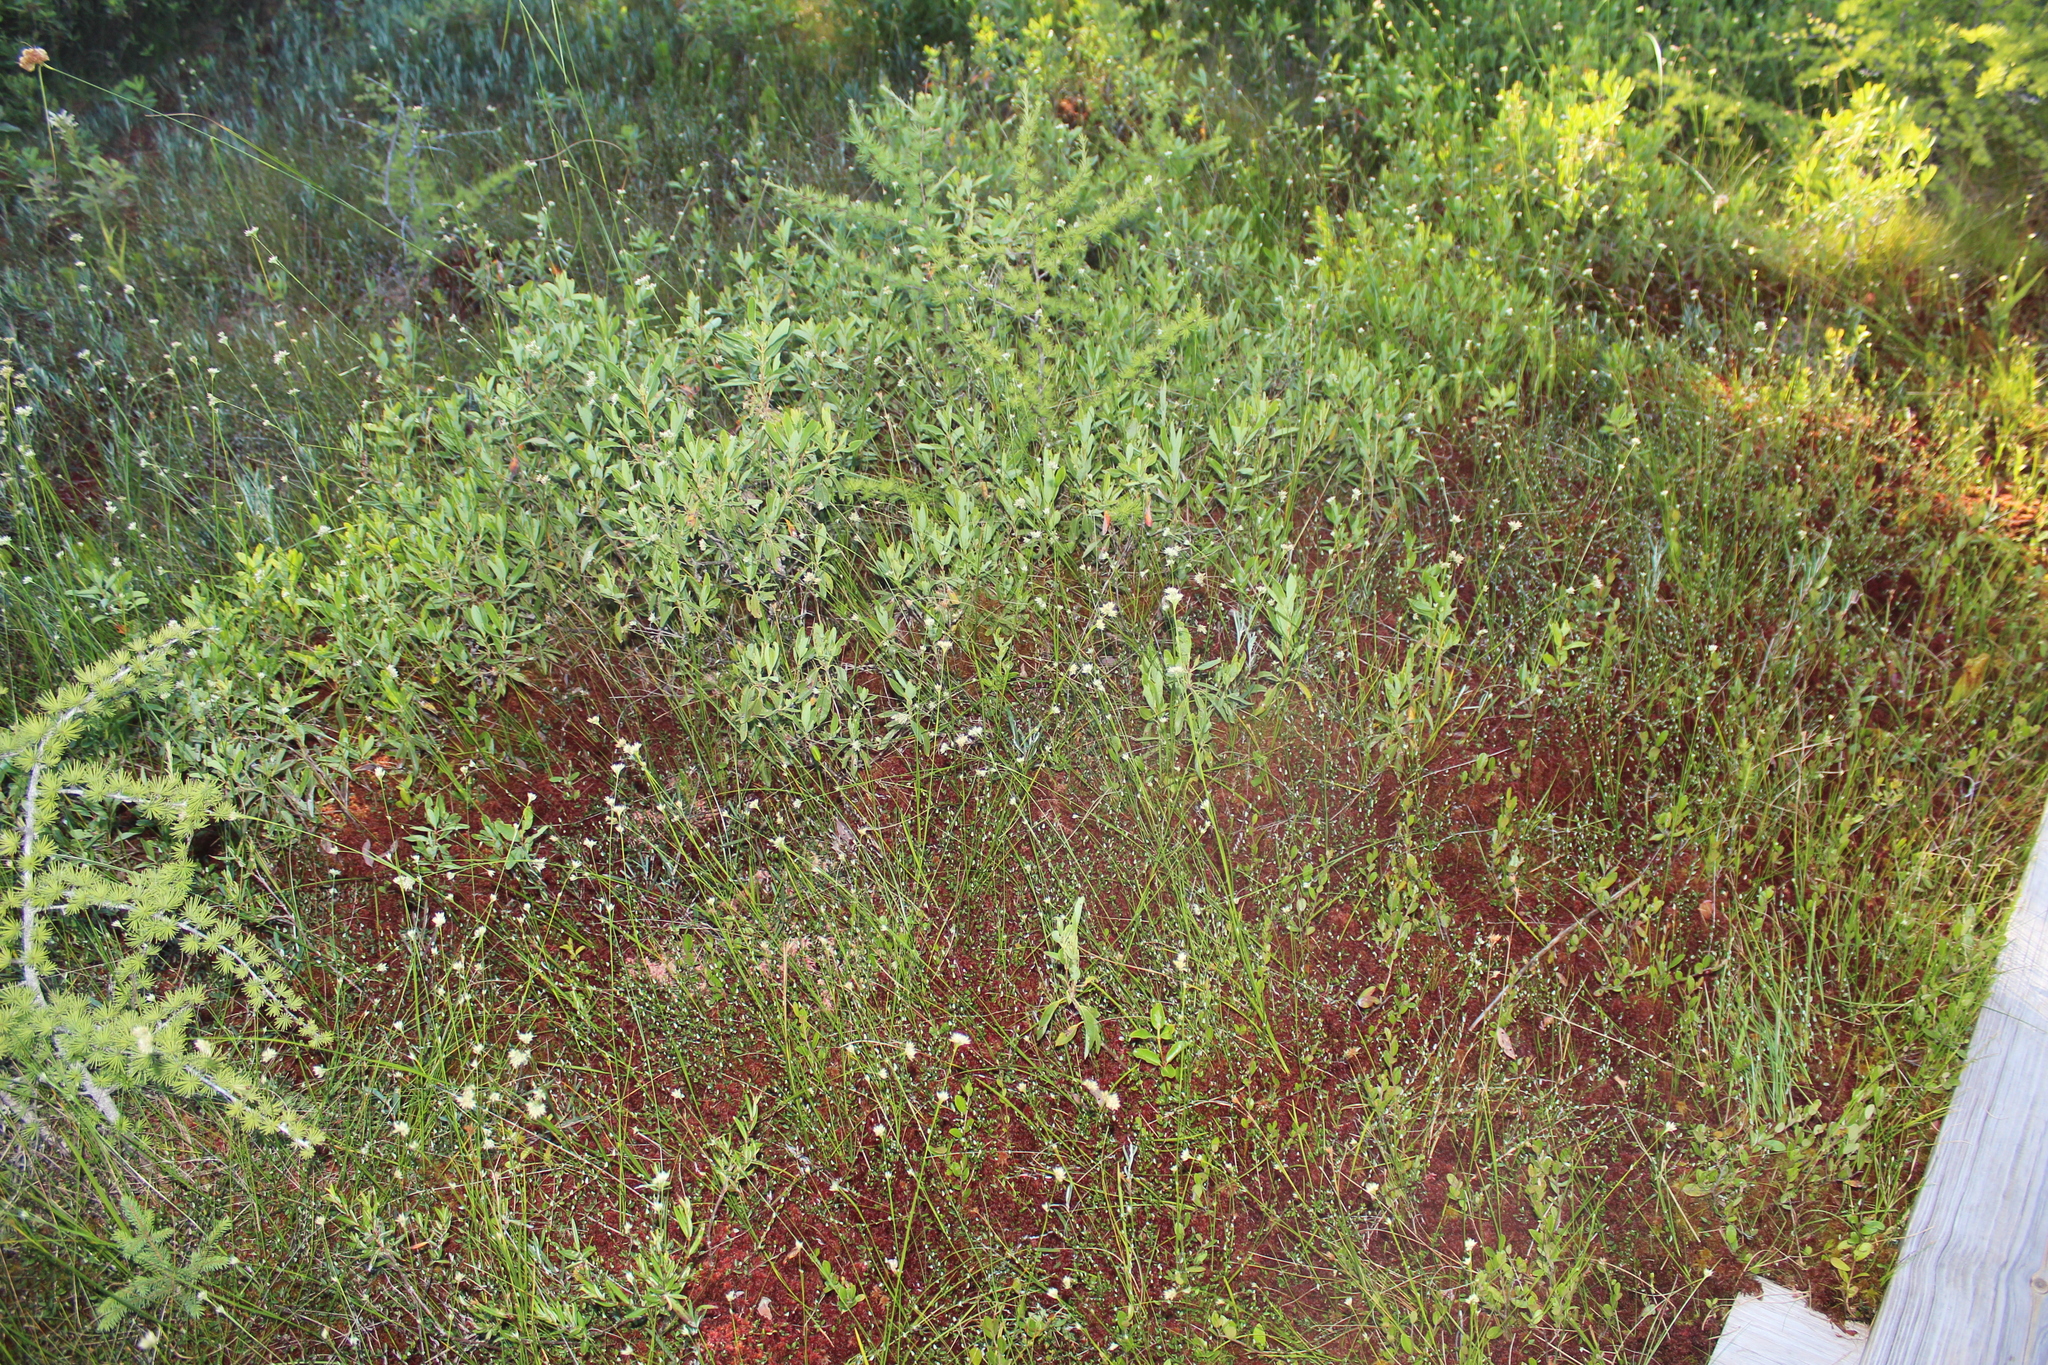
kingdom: Plantae
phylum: Tracheophyta
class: Liliopsida
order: Poales
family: Cyperaceae
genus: Rhynchospora
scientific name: Rhynchospora alba
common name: White beak-sedge
